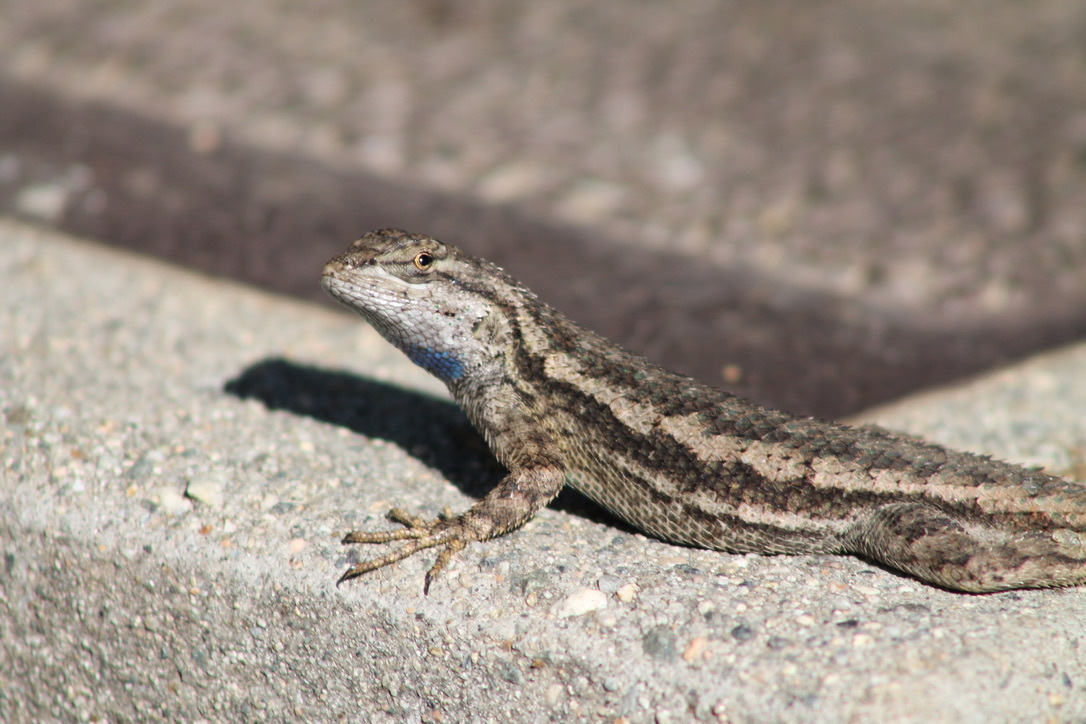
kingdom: Animalia
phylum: Chordata
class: Squamata
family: Phrynosomatidae
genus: Sceloporus
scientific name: Sceloporus occidentalis
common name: Western fence lizard
